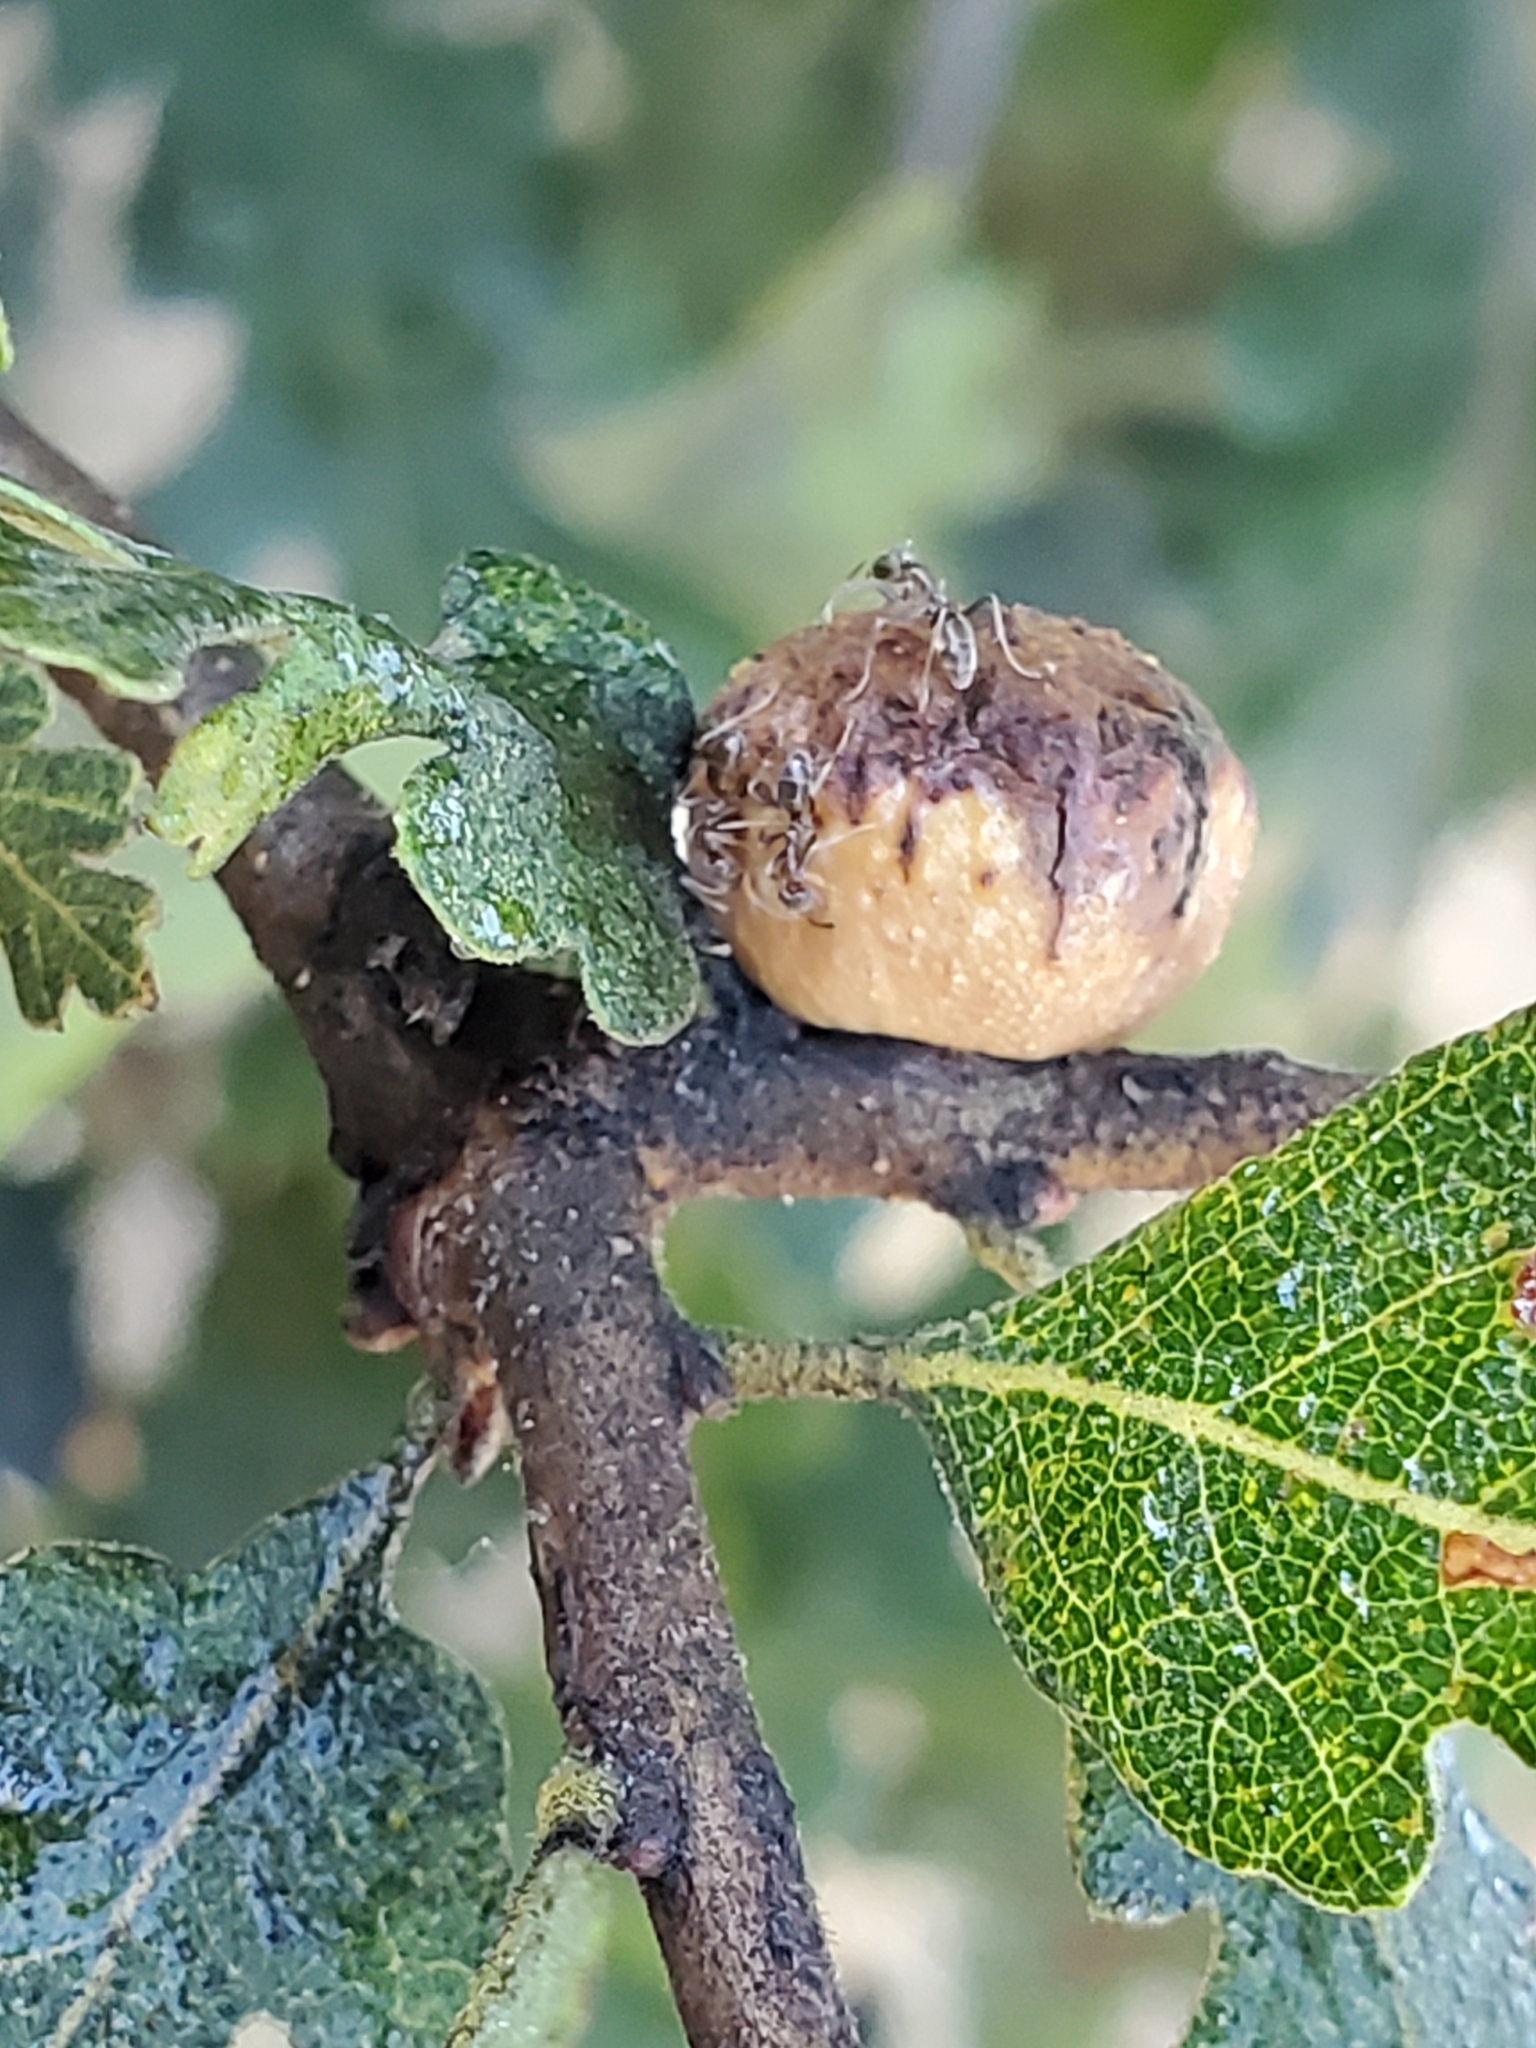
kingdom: Animalia
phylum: Arthropoda
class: Insecta
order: Hymenoptera
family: Cynipidae
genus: Disholcaspis
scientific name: Disholcaspis
